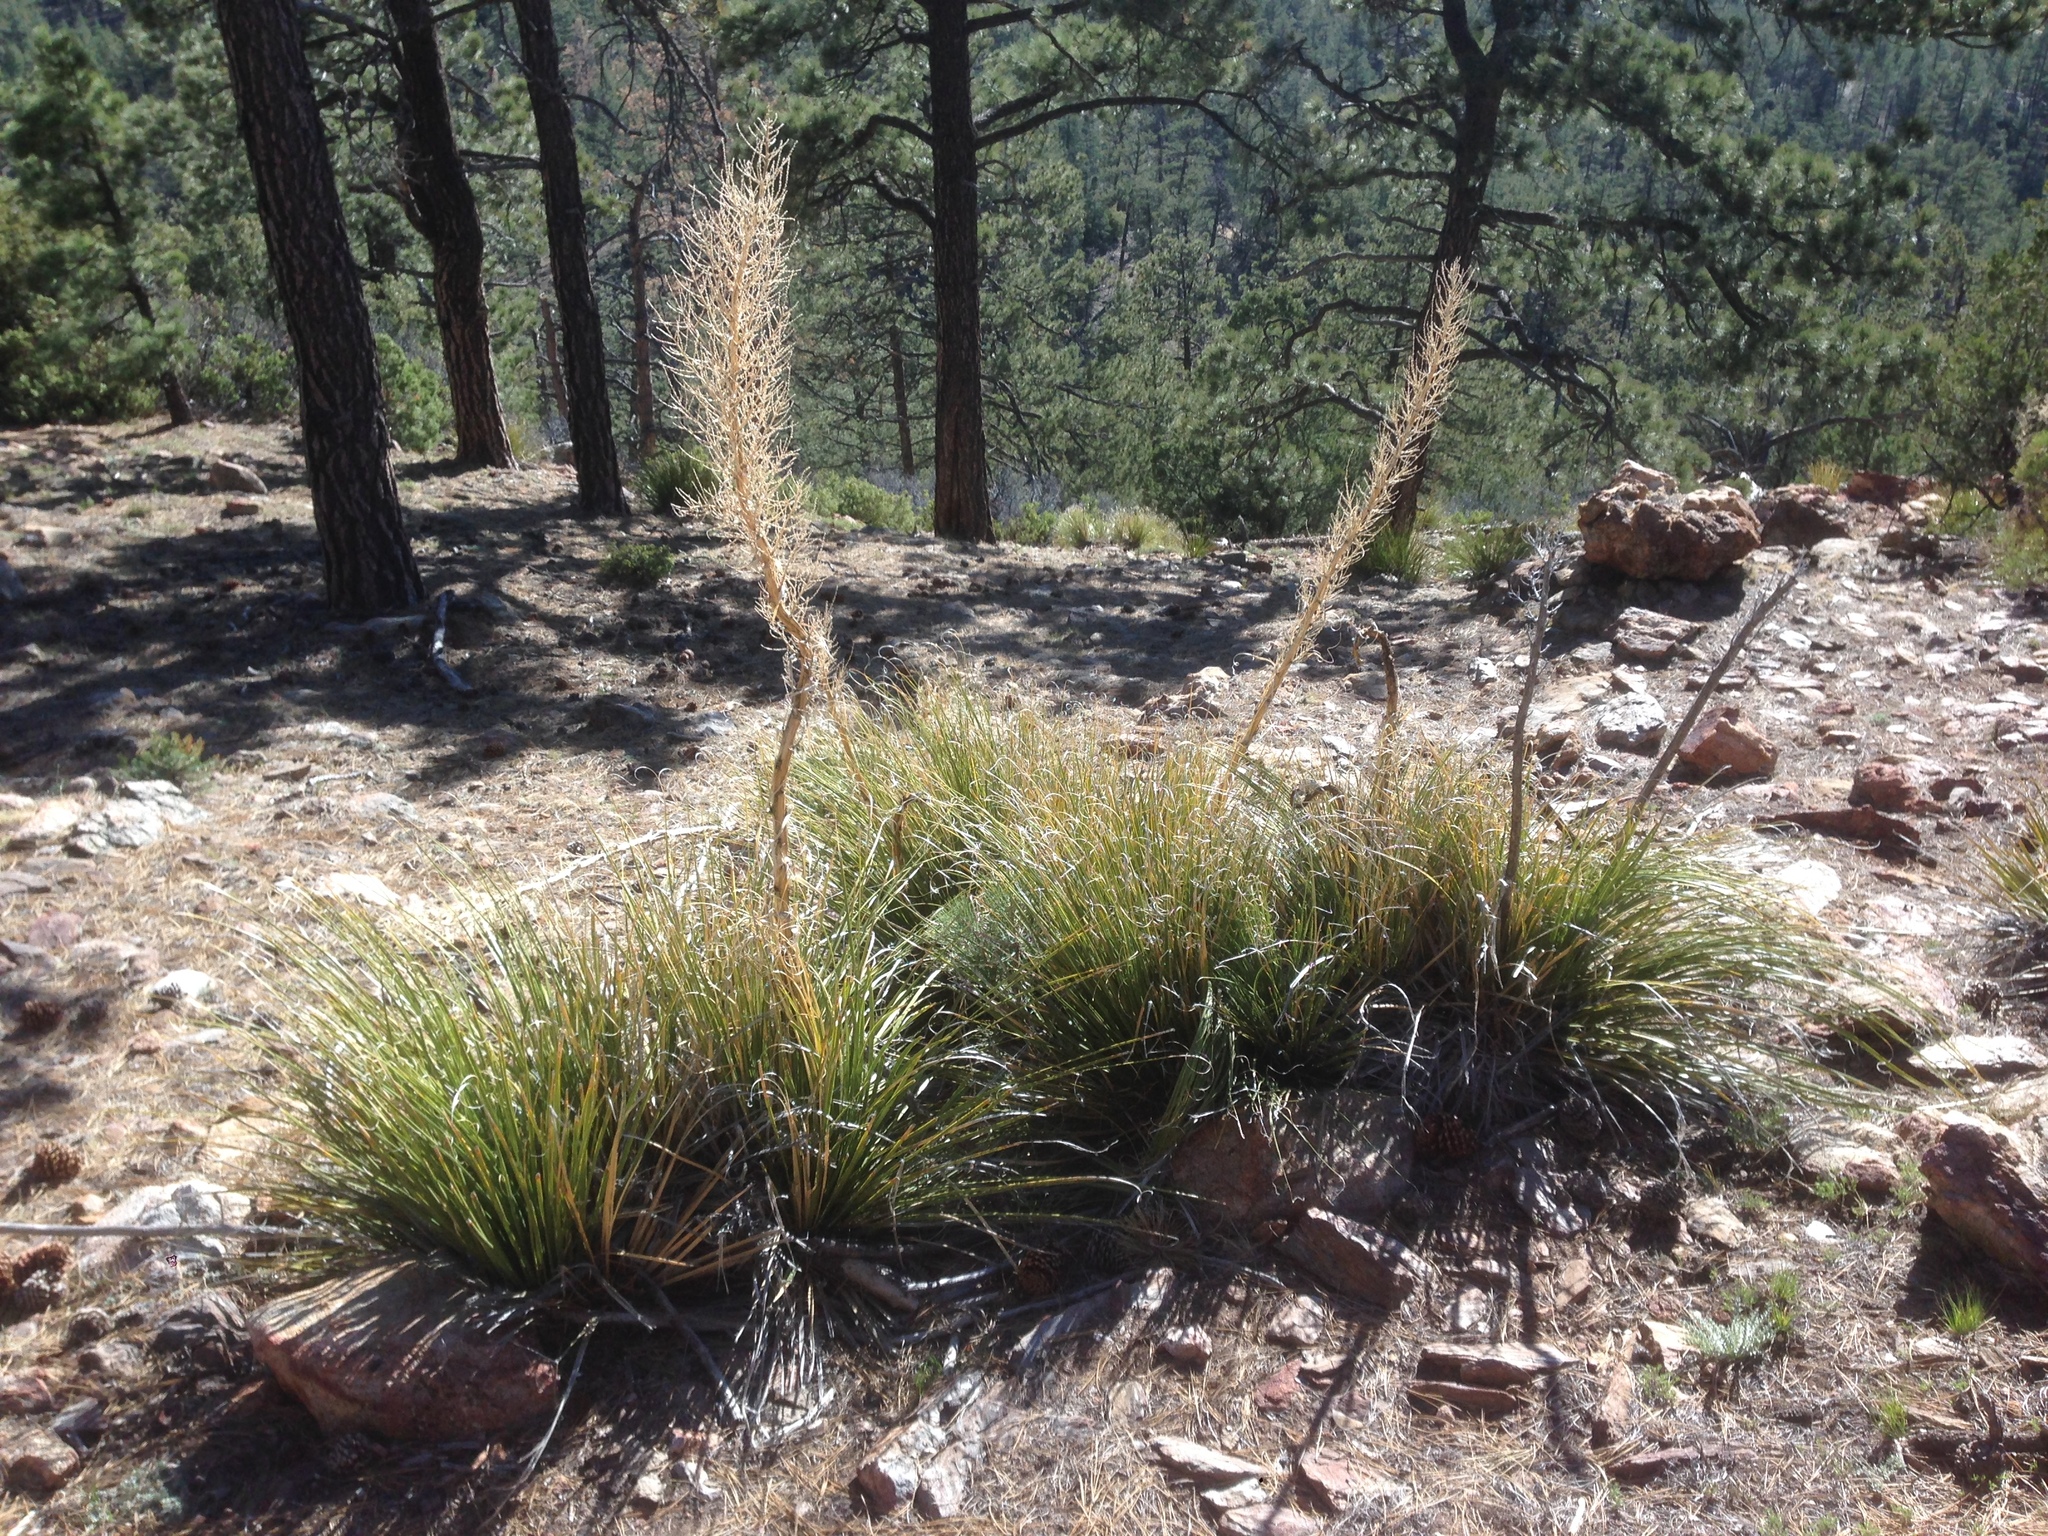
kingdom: Plantae
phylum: Tracheophyta
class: Liliopsida
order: Asparagales
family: Asparagaceae
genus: Nolina
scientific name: Nolina palmeri
